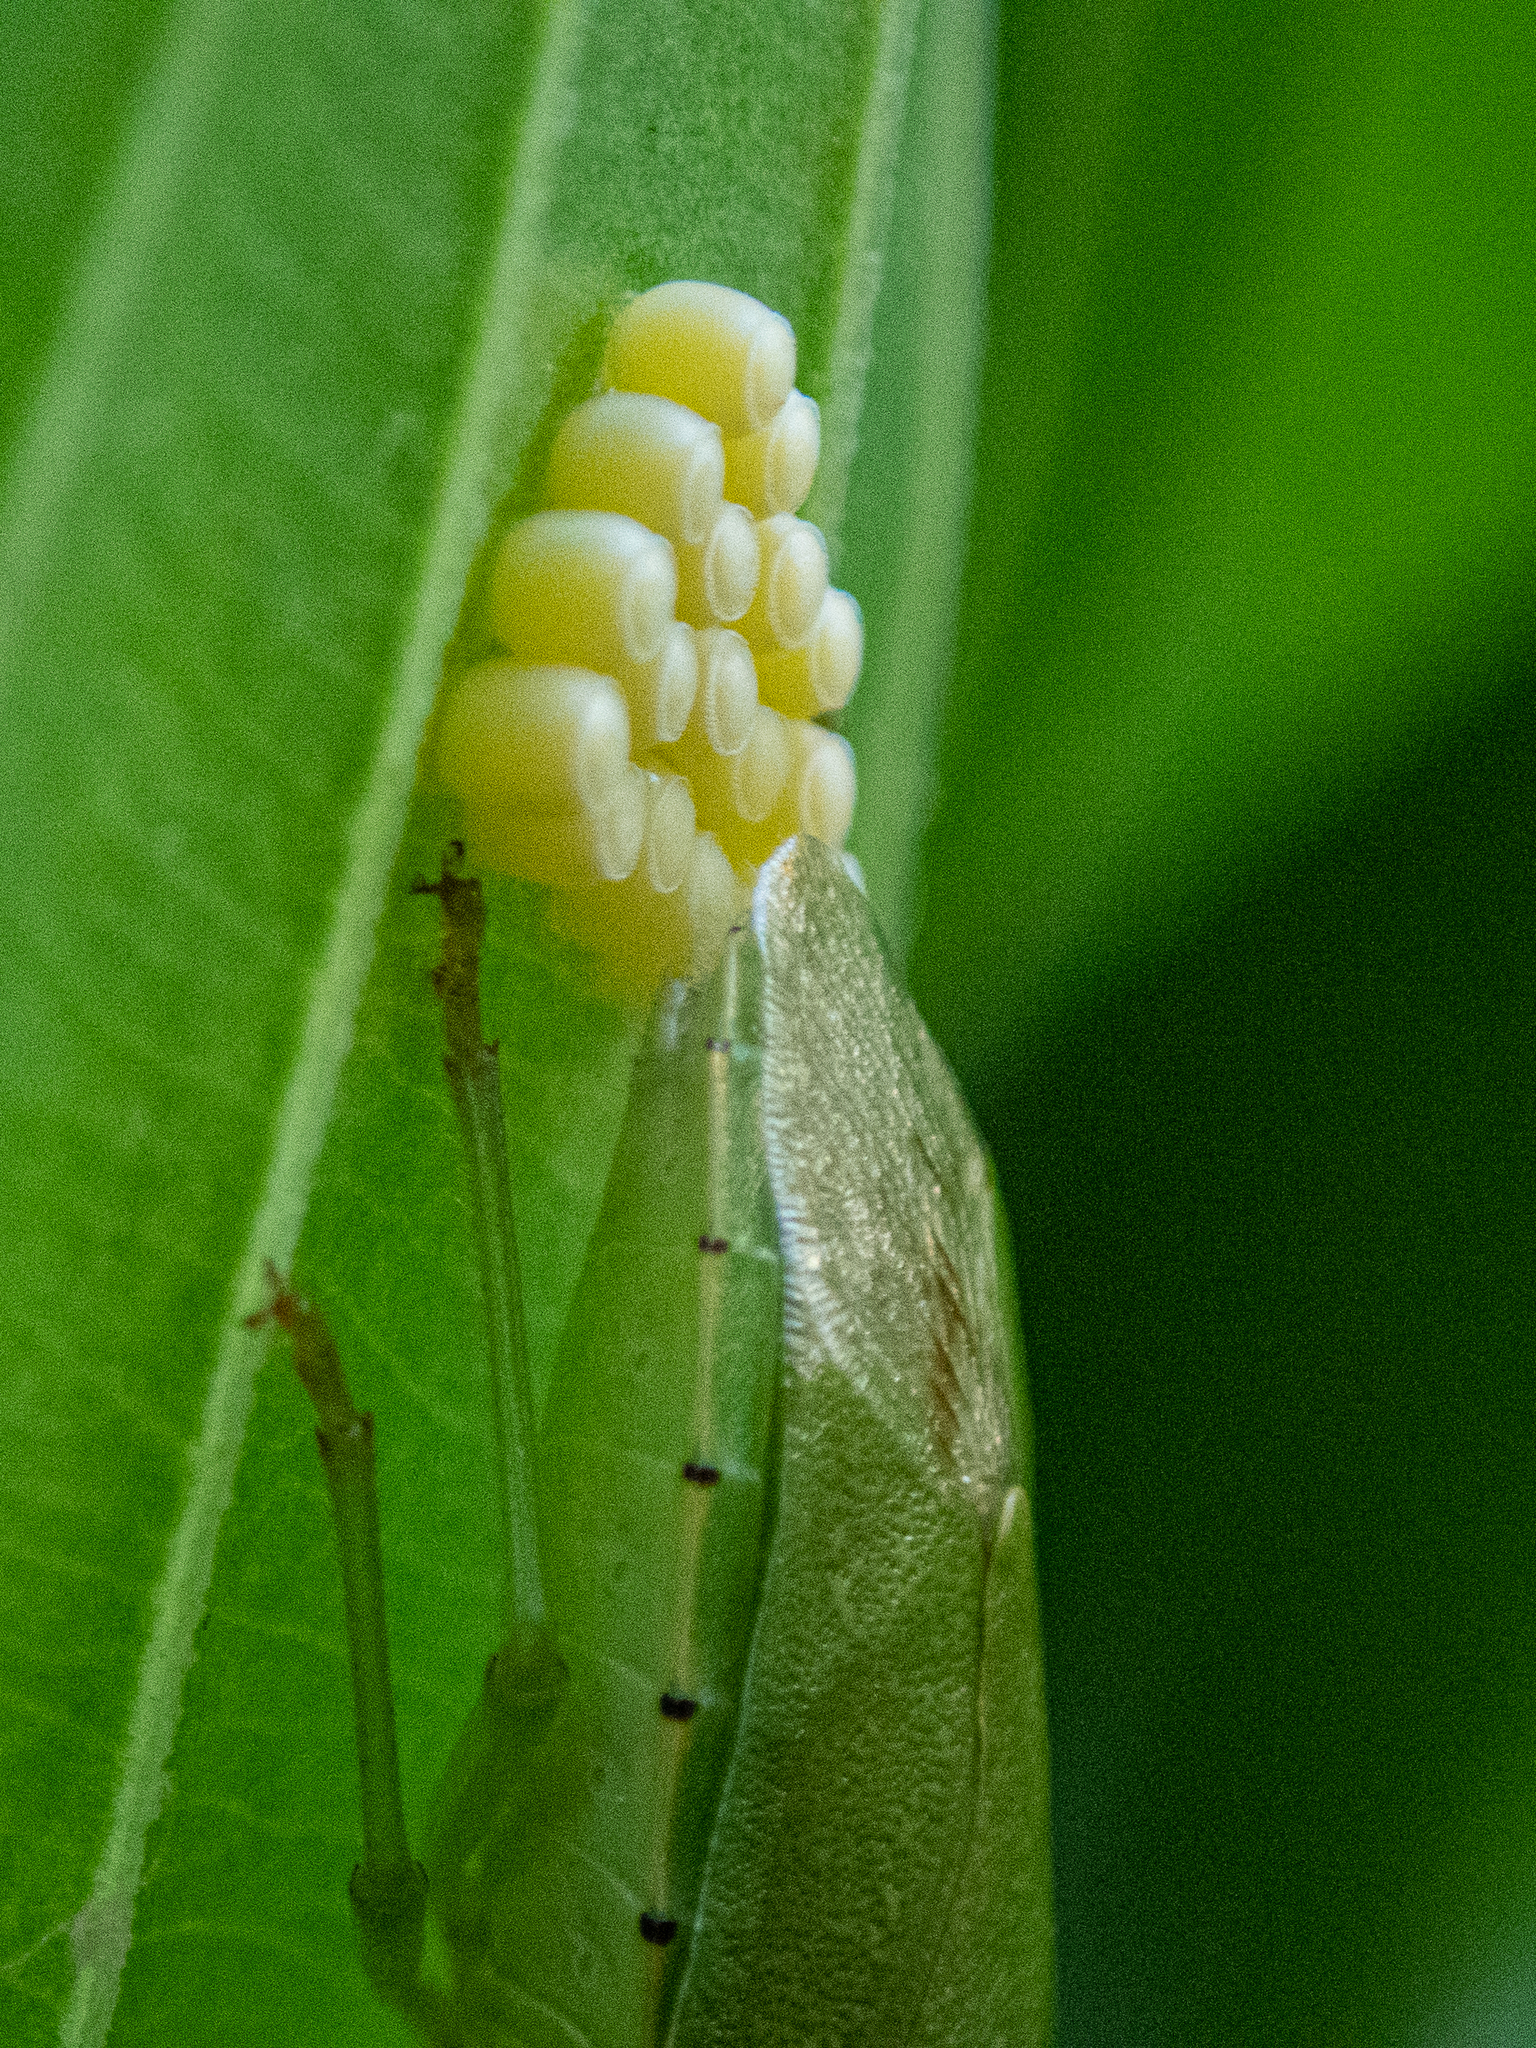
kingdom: Animalia
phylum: Arthropoda
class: Insecta
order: Hemiptera
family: Pentatomidae
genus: Chinavia
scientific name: Chinavia hilaris
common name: Green stink bug
